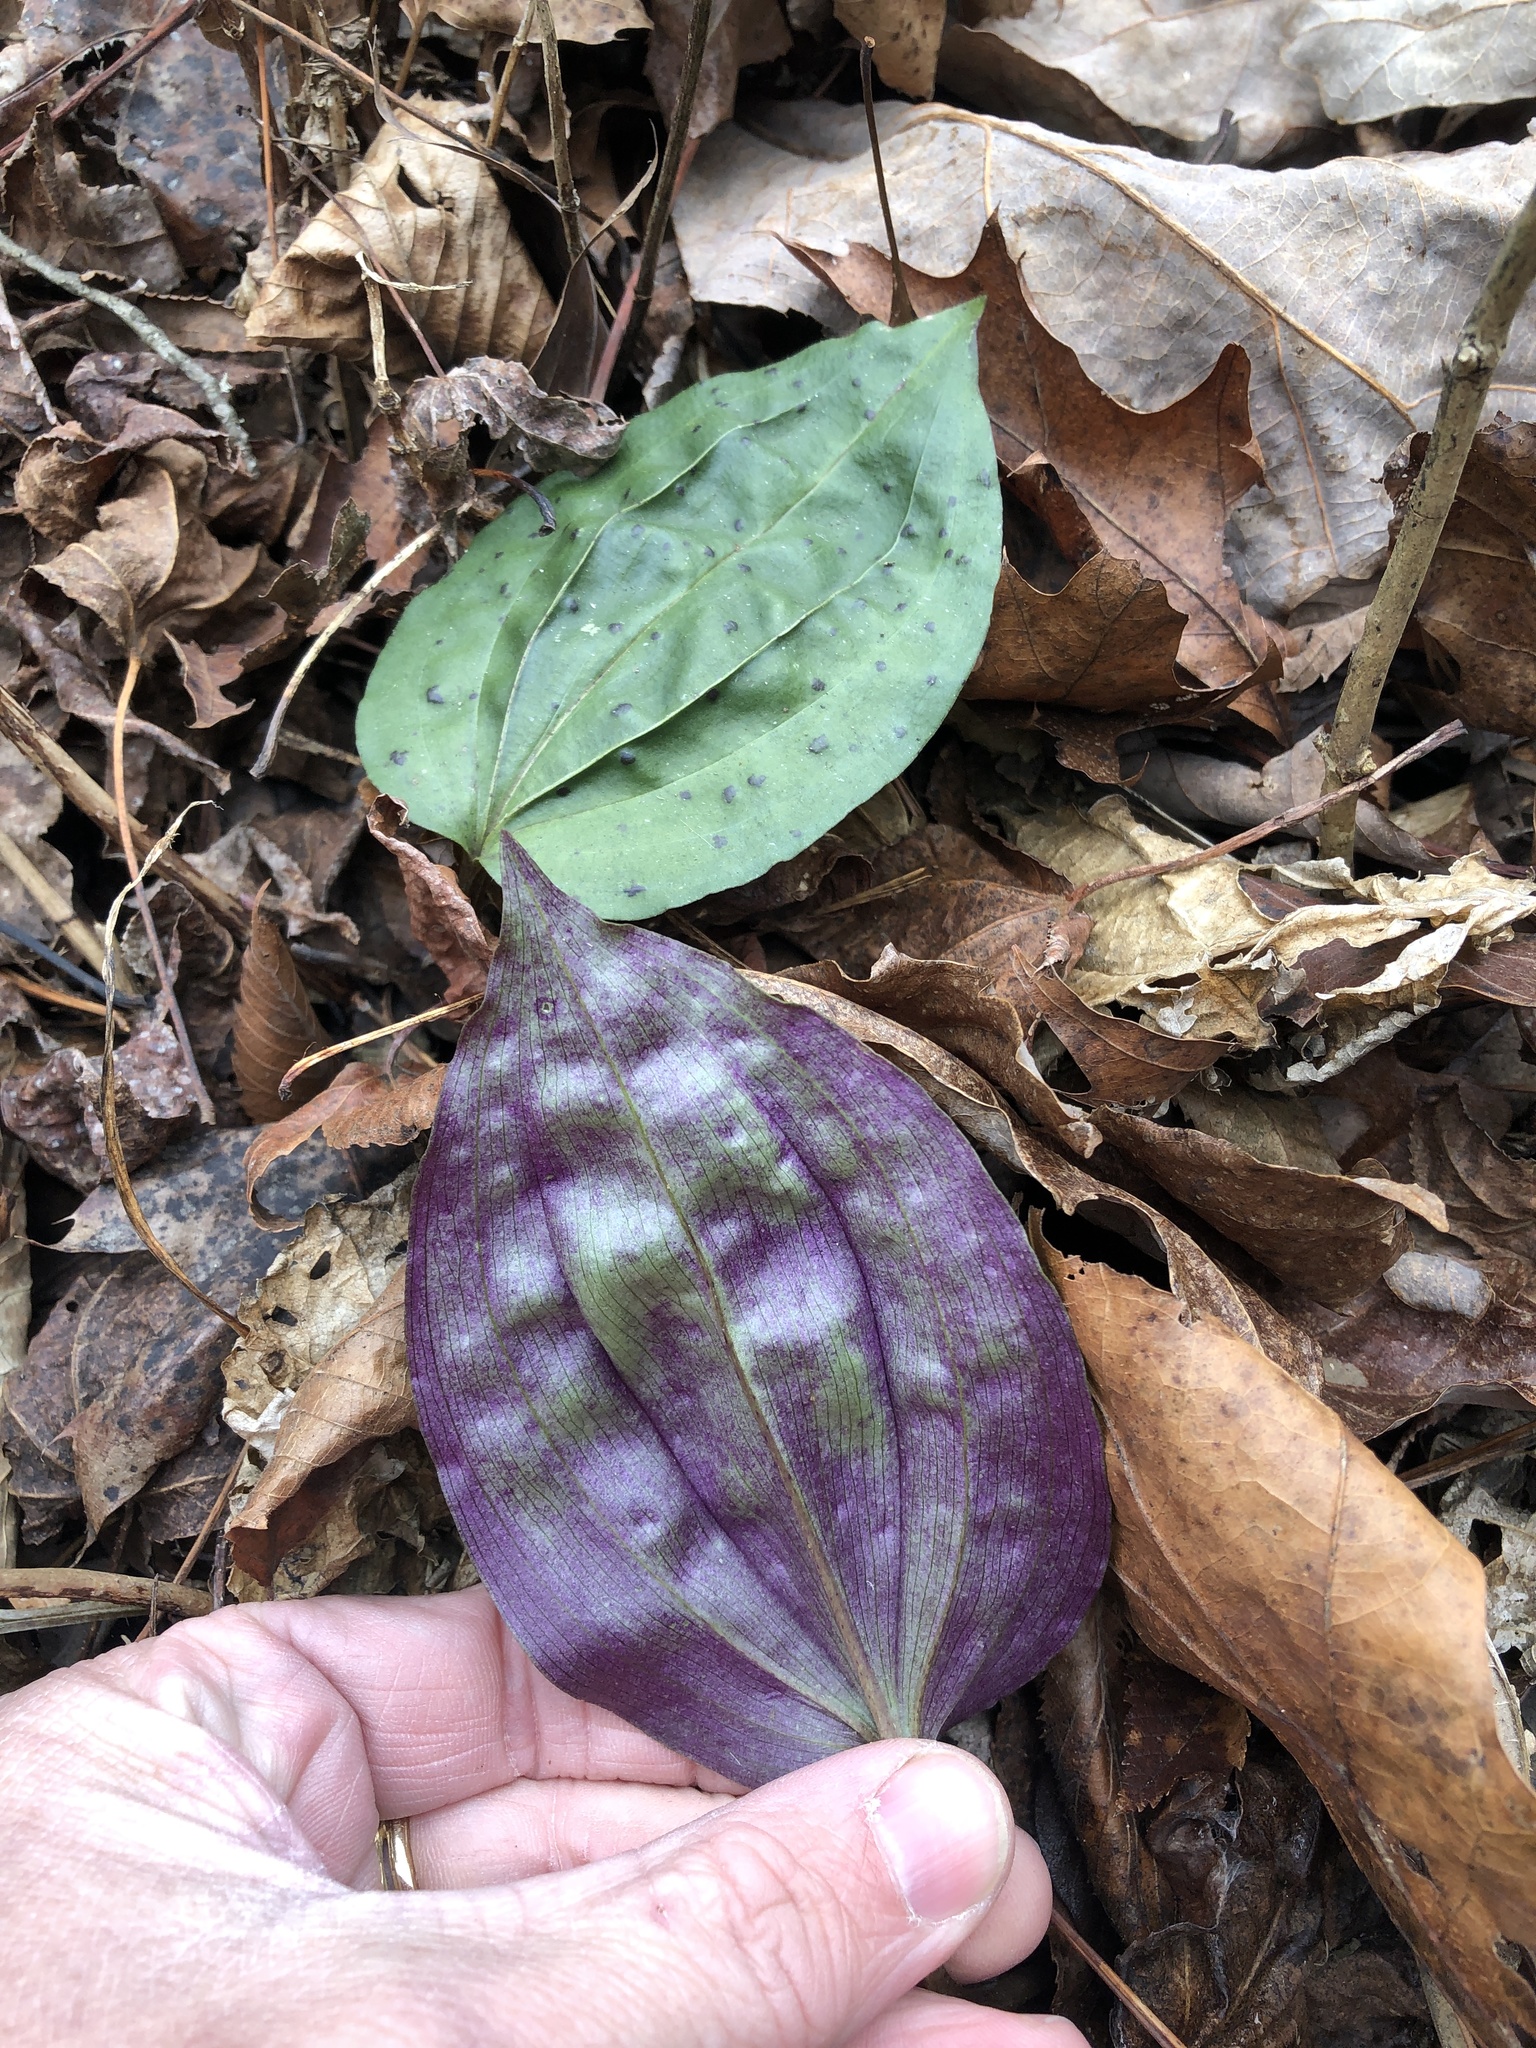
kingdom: Plantae
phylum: Tracheophyta
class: Liliopsida
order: Asparagales
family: Orchidaceae
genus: Tipularia
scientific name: Tipularia discolor
